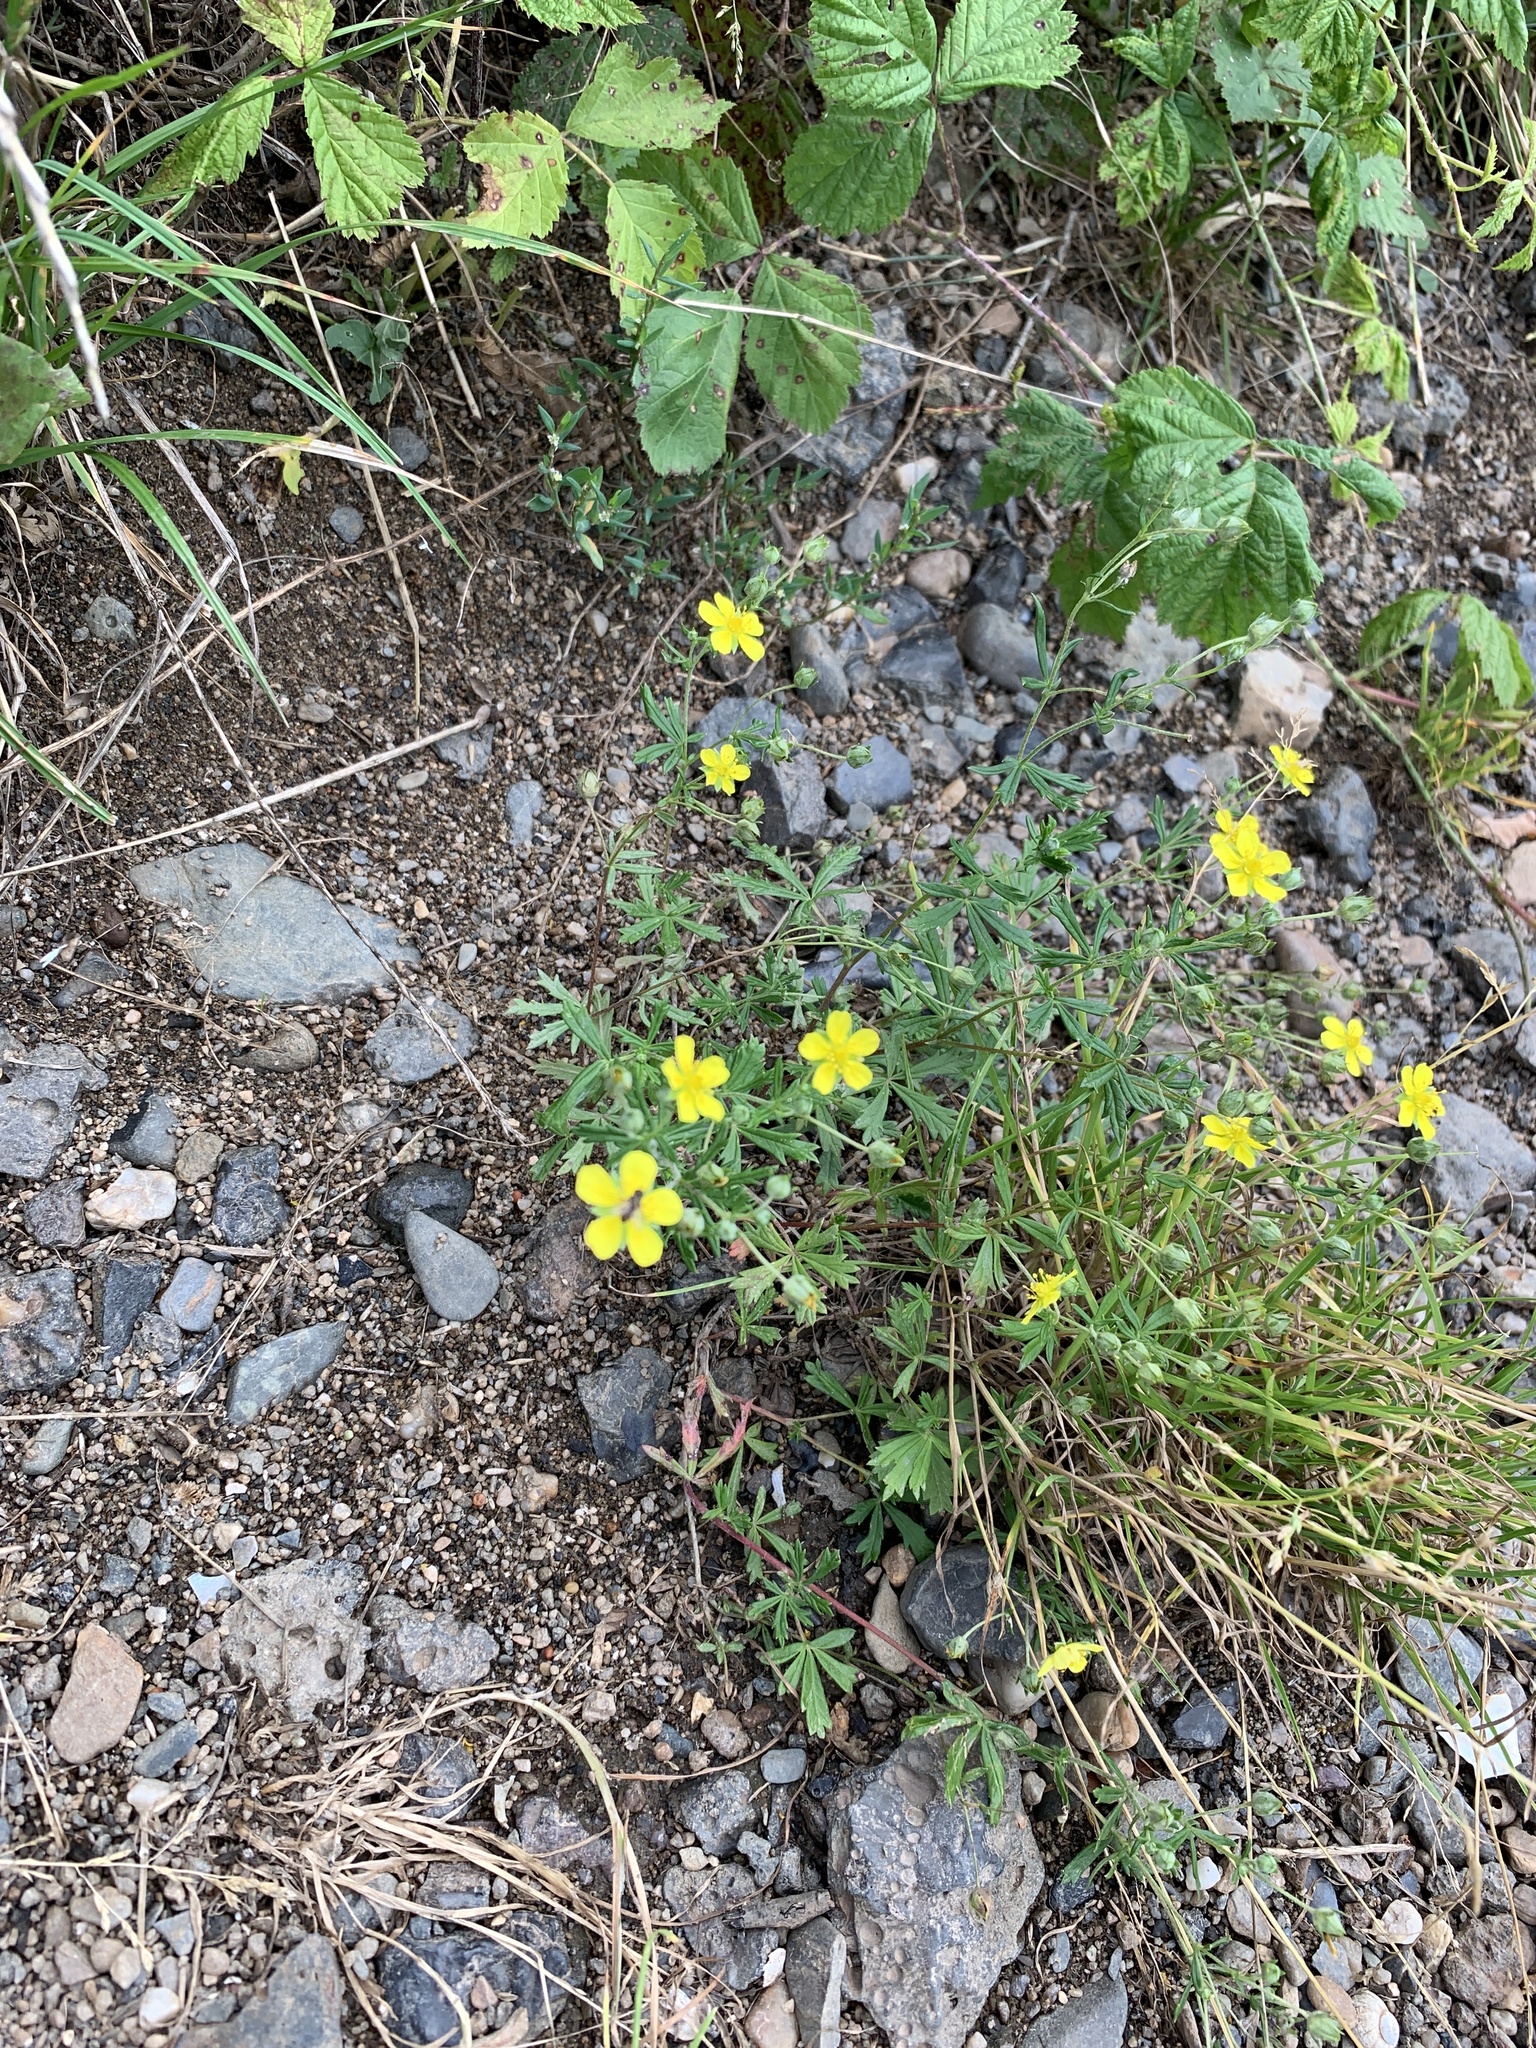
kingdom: Plantae
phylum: Tracheophyta
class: Magnoliopsida
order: Rosales
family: Rosaceae
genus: Potentilla
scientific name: Potentilla argentea
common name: Hoary cinquefoil
